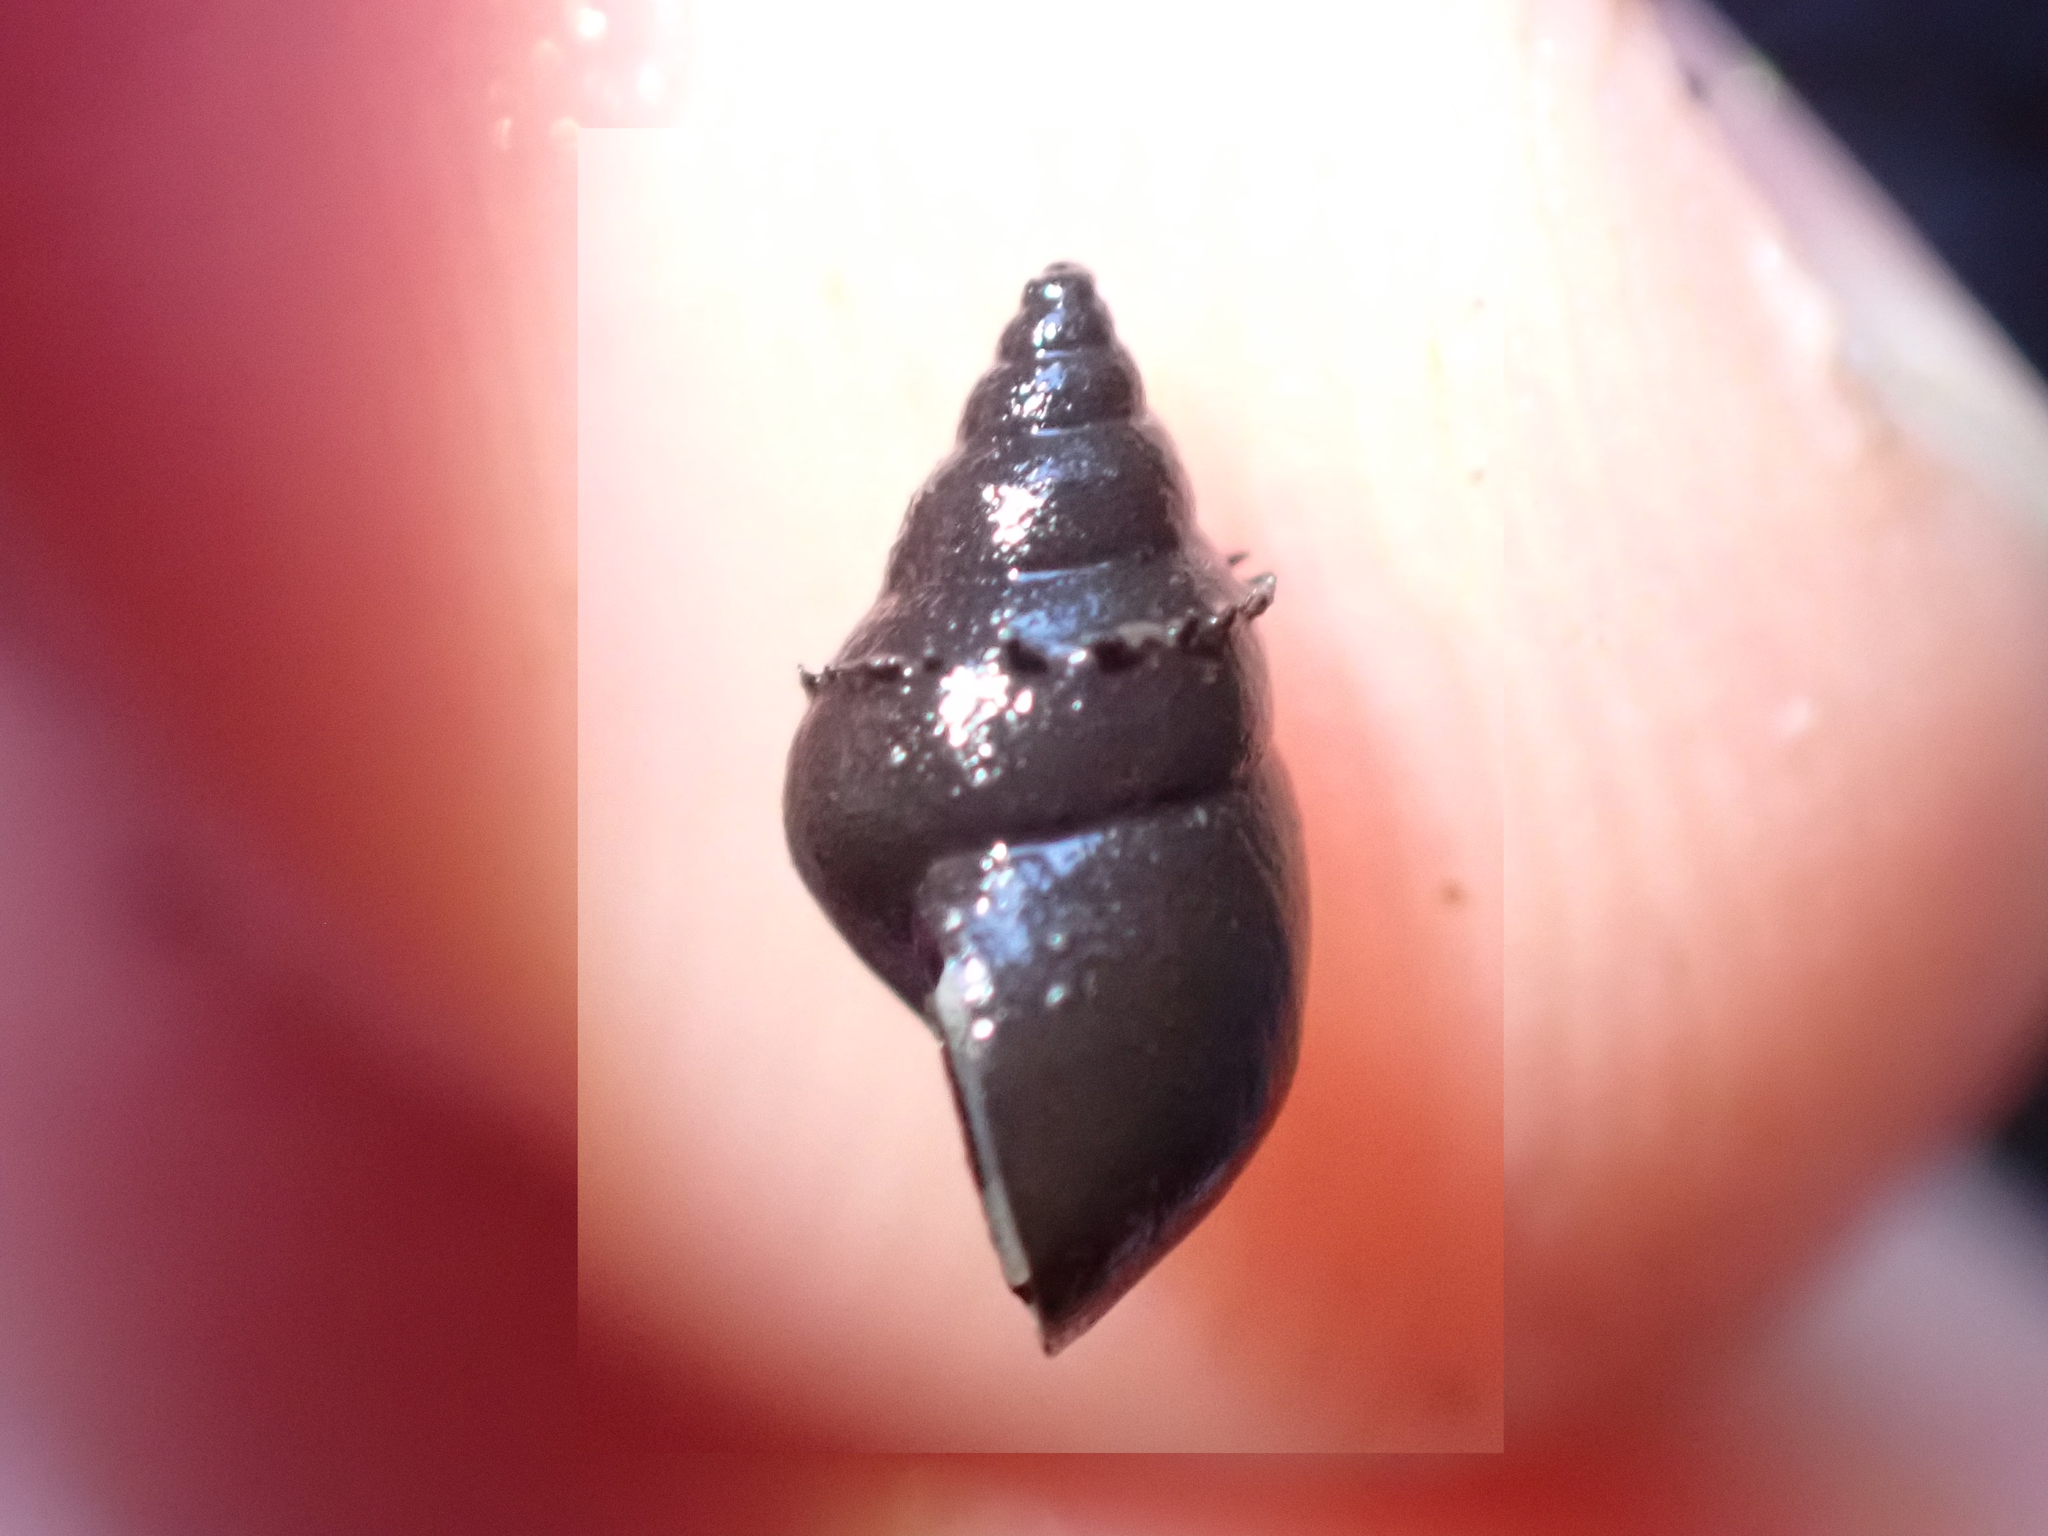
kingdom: Animalia
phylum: Mollusca
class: Gastropoda
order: Littorinimorpha
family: Tateidae
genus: Potamopyrgus
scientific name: Potamopyrgus antipodarum
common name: Jenkins' spire snail
